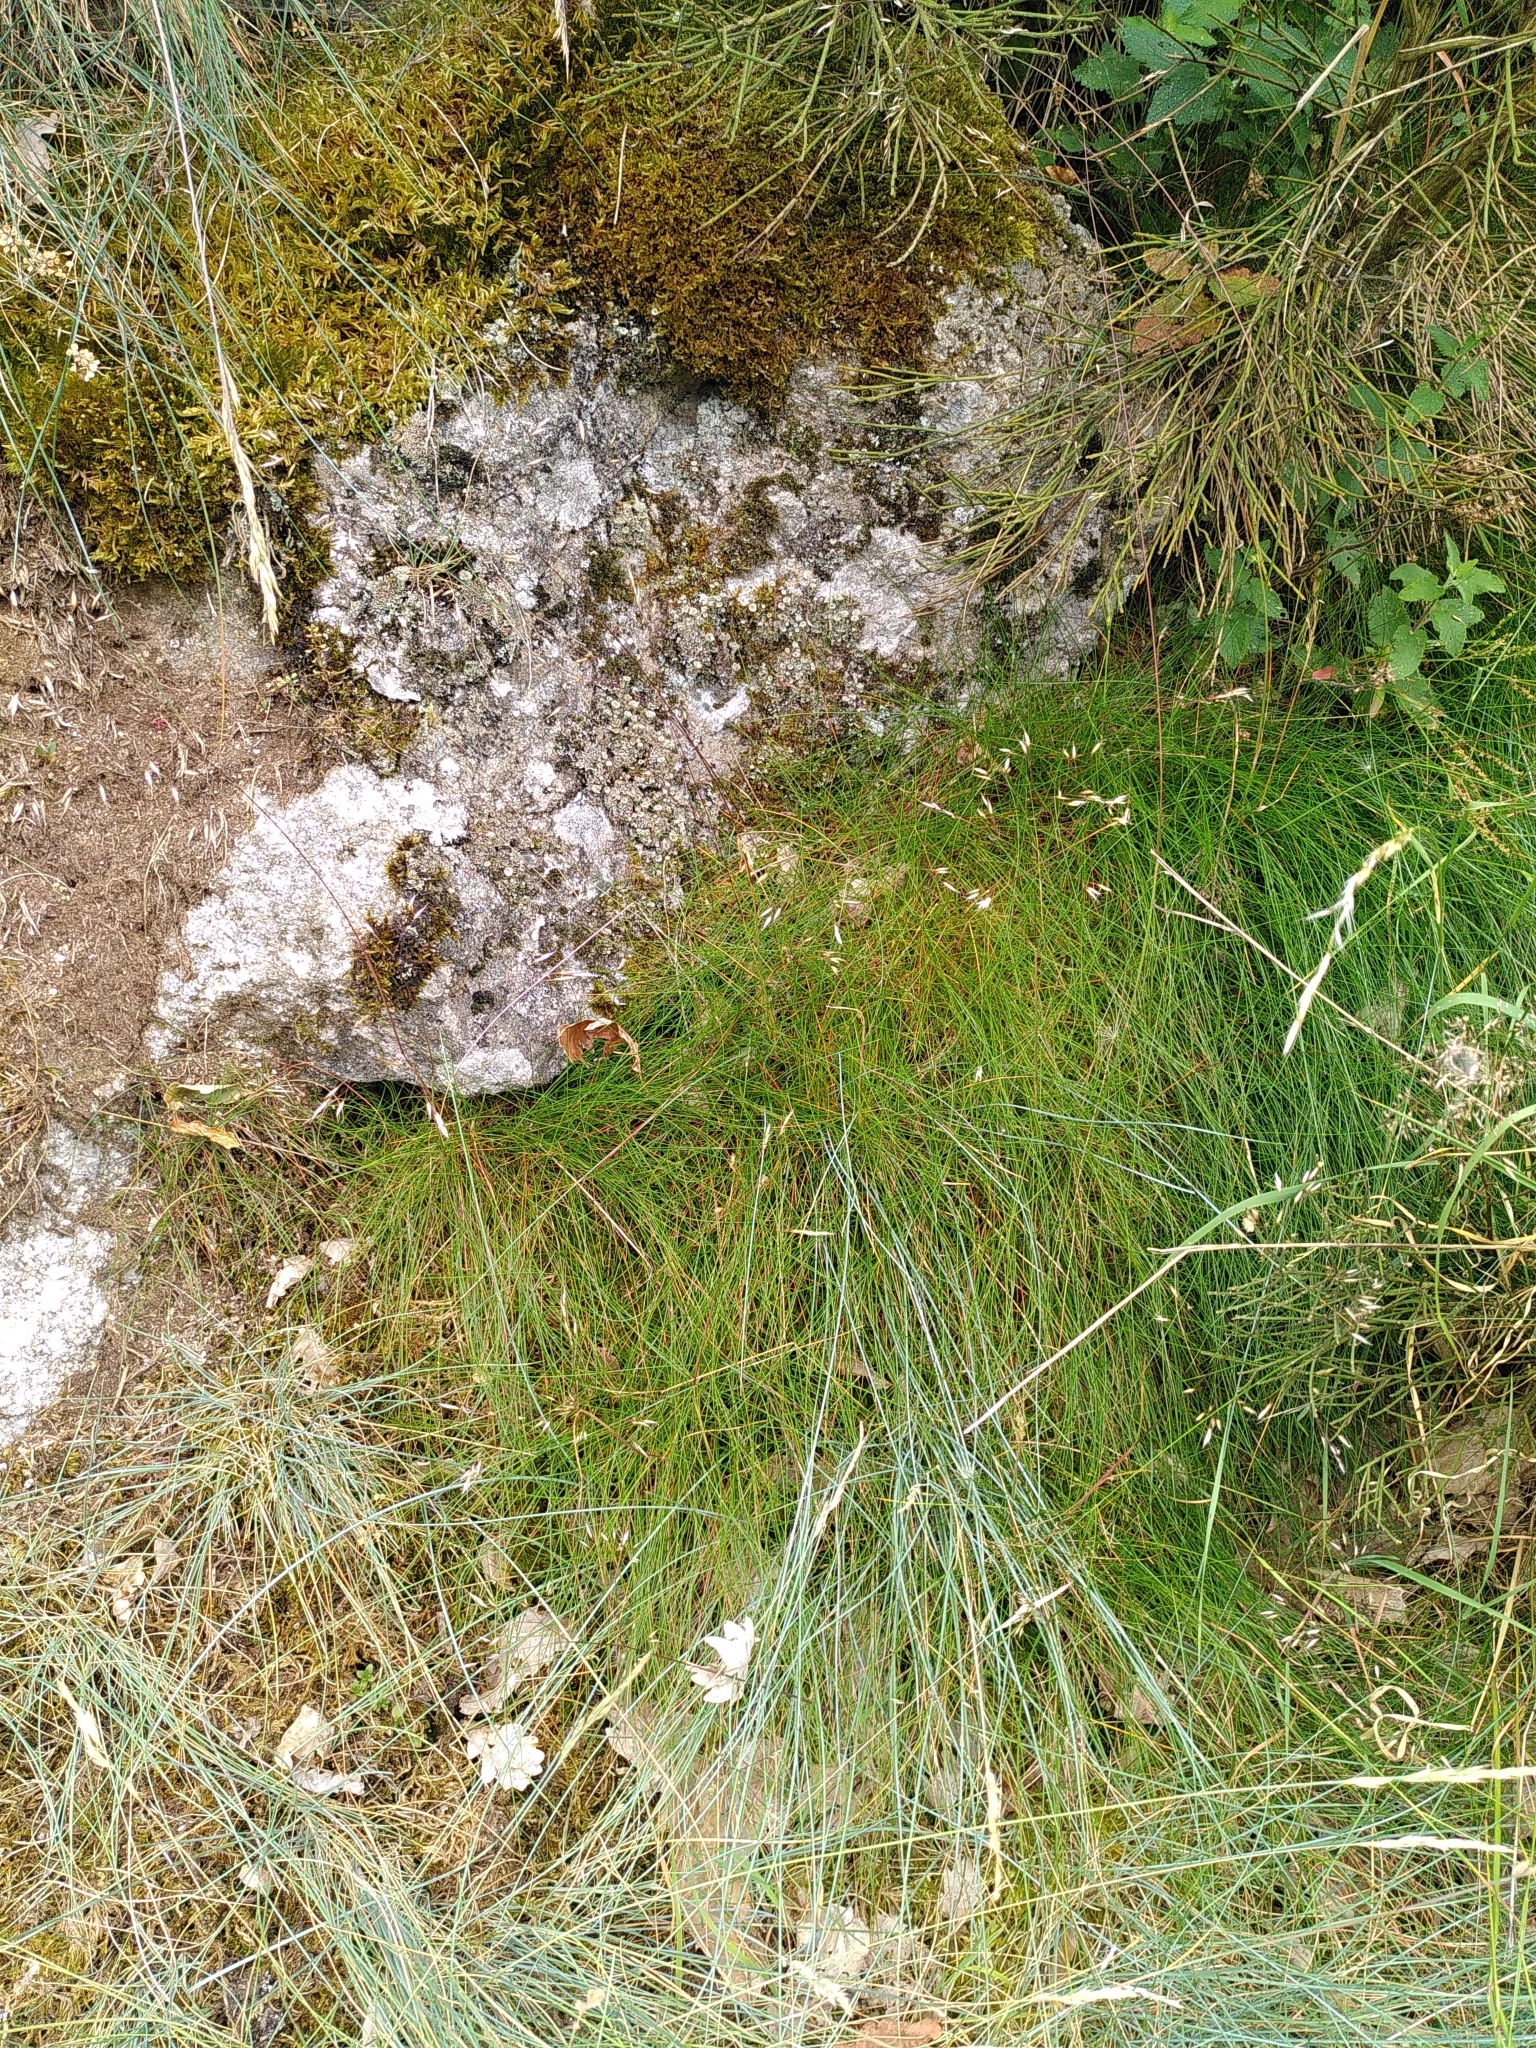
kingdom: Plantae
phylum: Tracheophyta
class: Liliopsida
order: Poales
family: Poaceae
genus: Avenella
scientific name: Avenella flexuosa
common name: Wavy hairgrass
